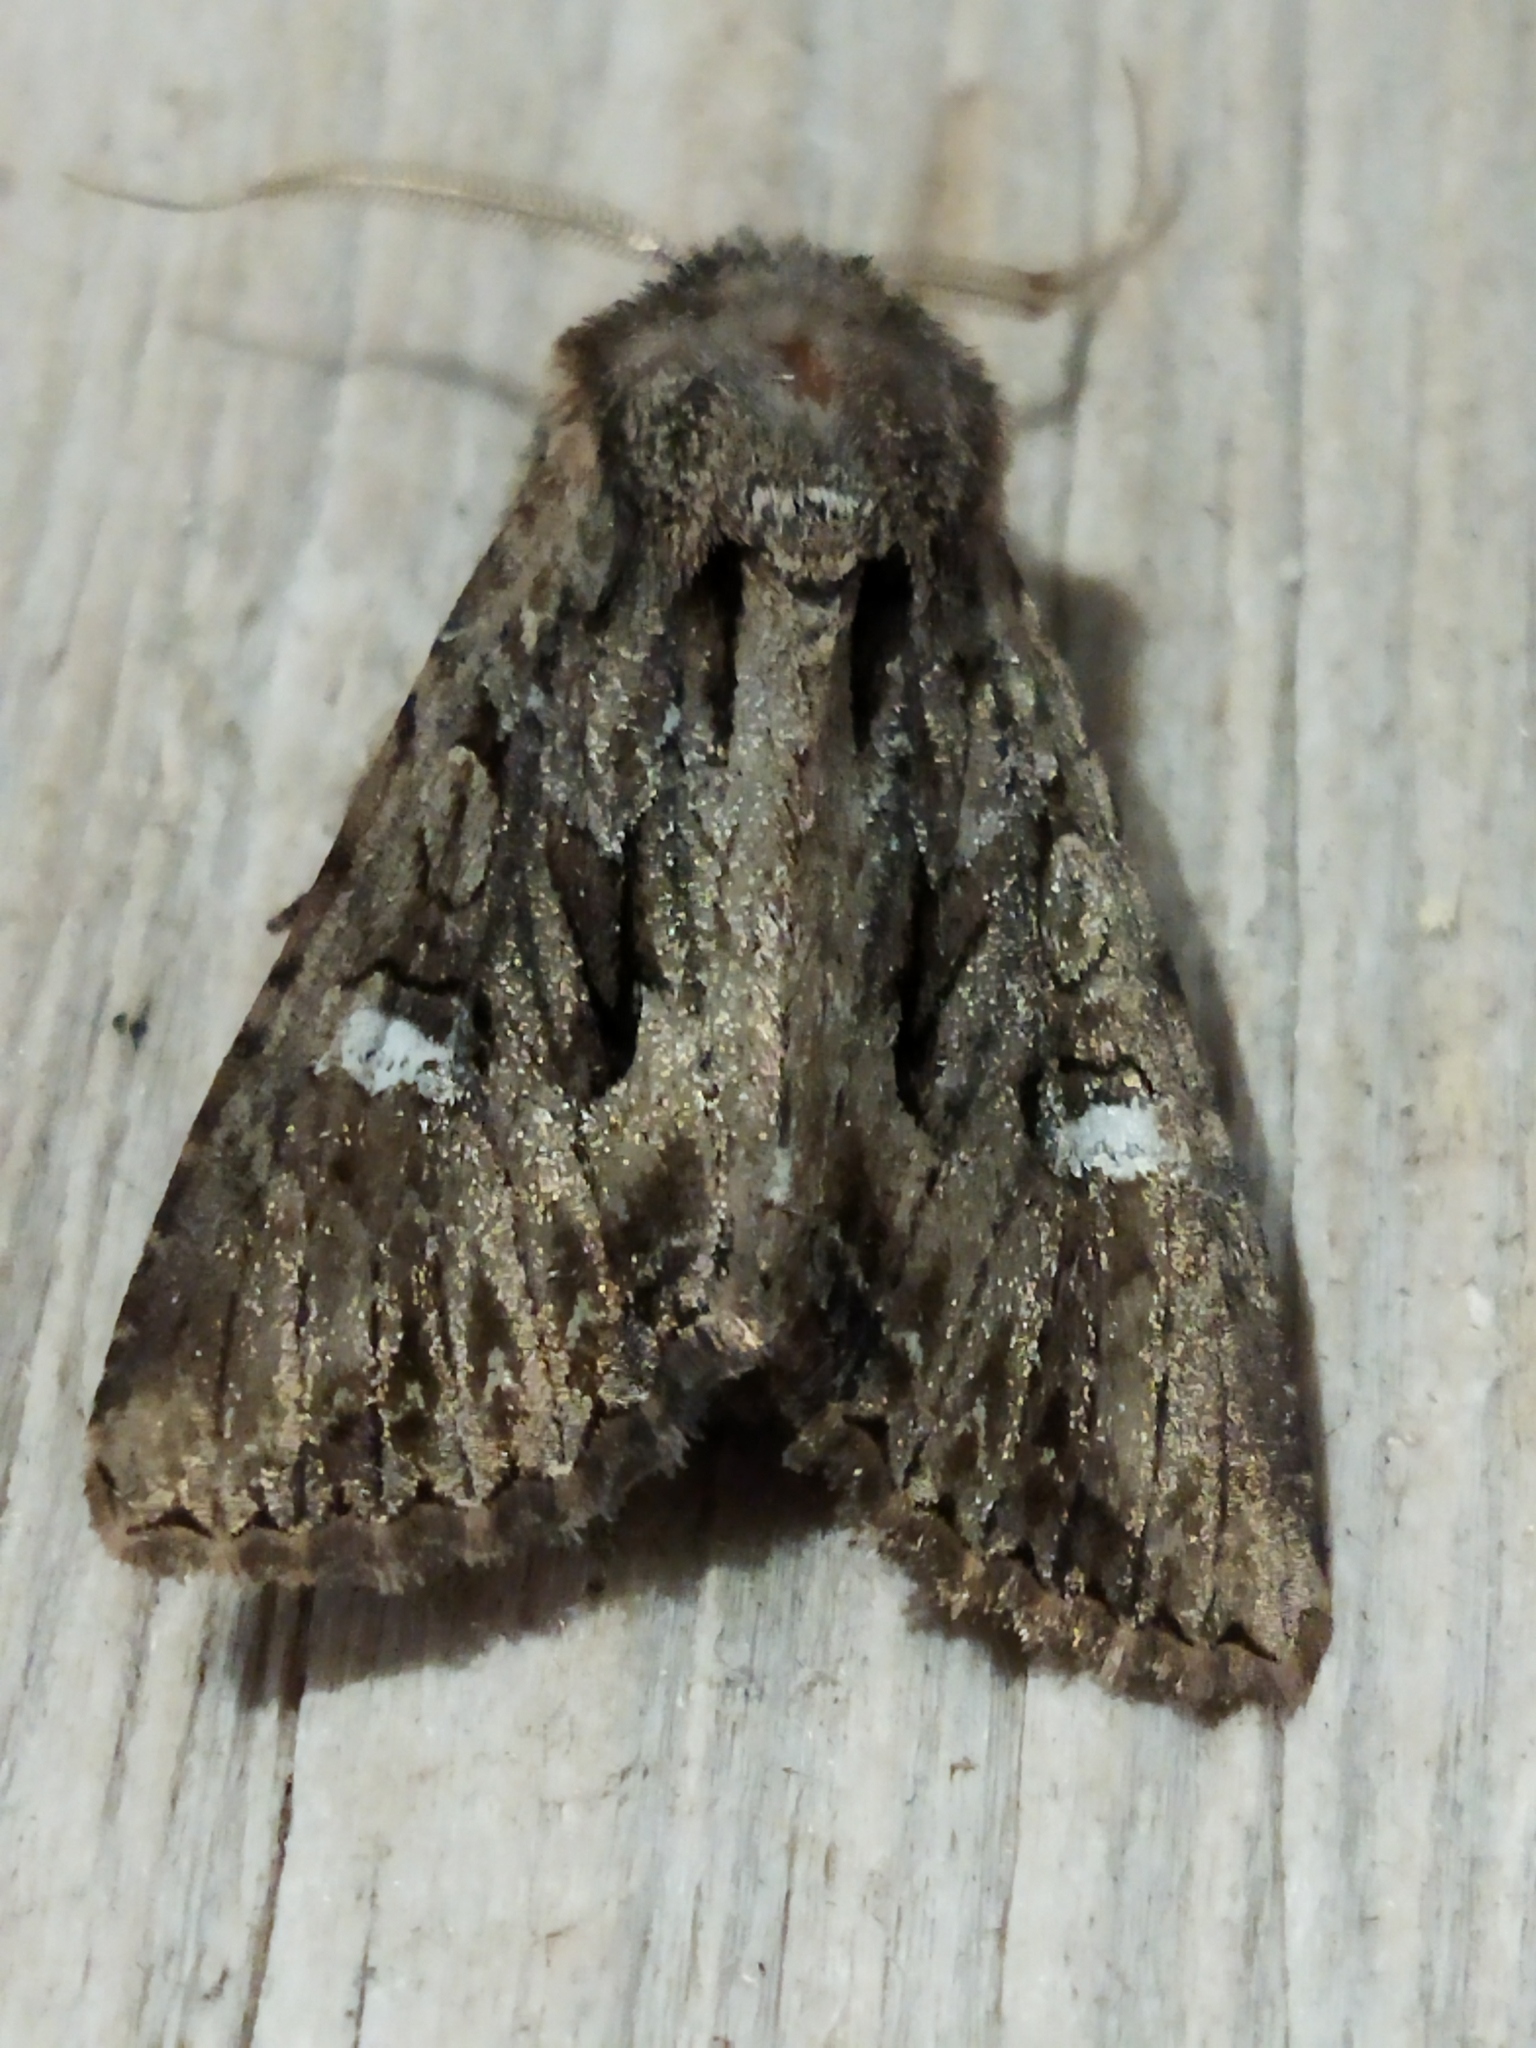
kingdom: Animalia
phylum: Arthropoda
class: Insecta
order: Lepidoptera
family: Noctuidae
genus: Polymixis
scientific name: Polymixis trisignata
